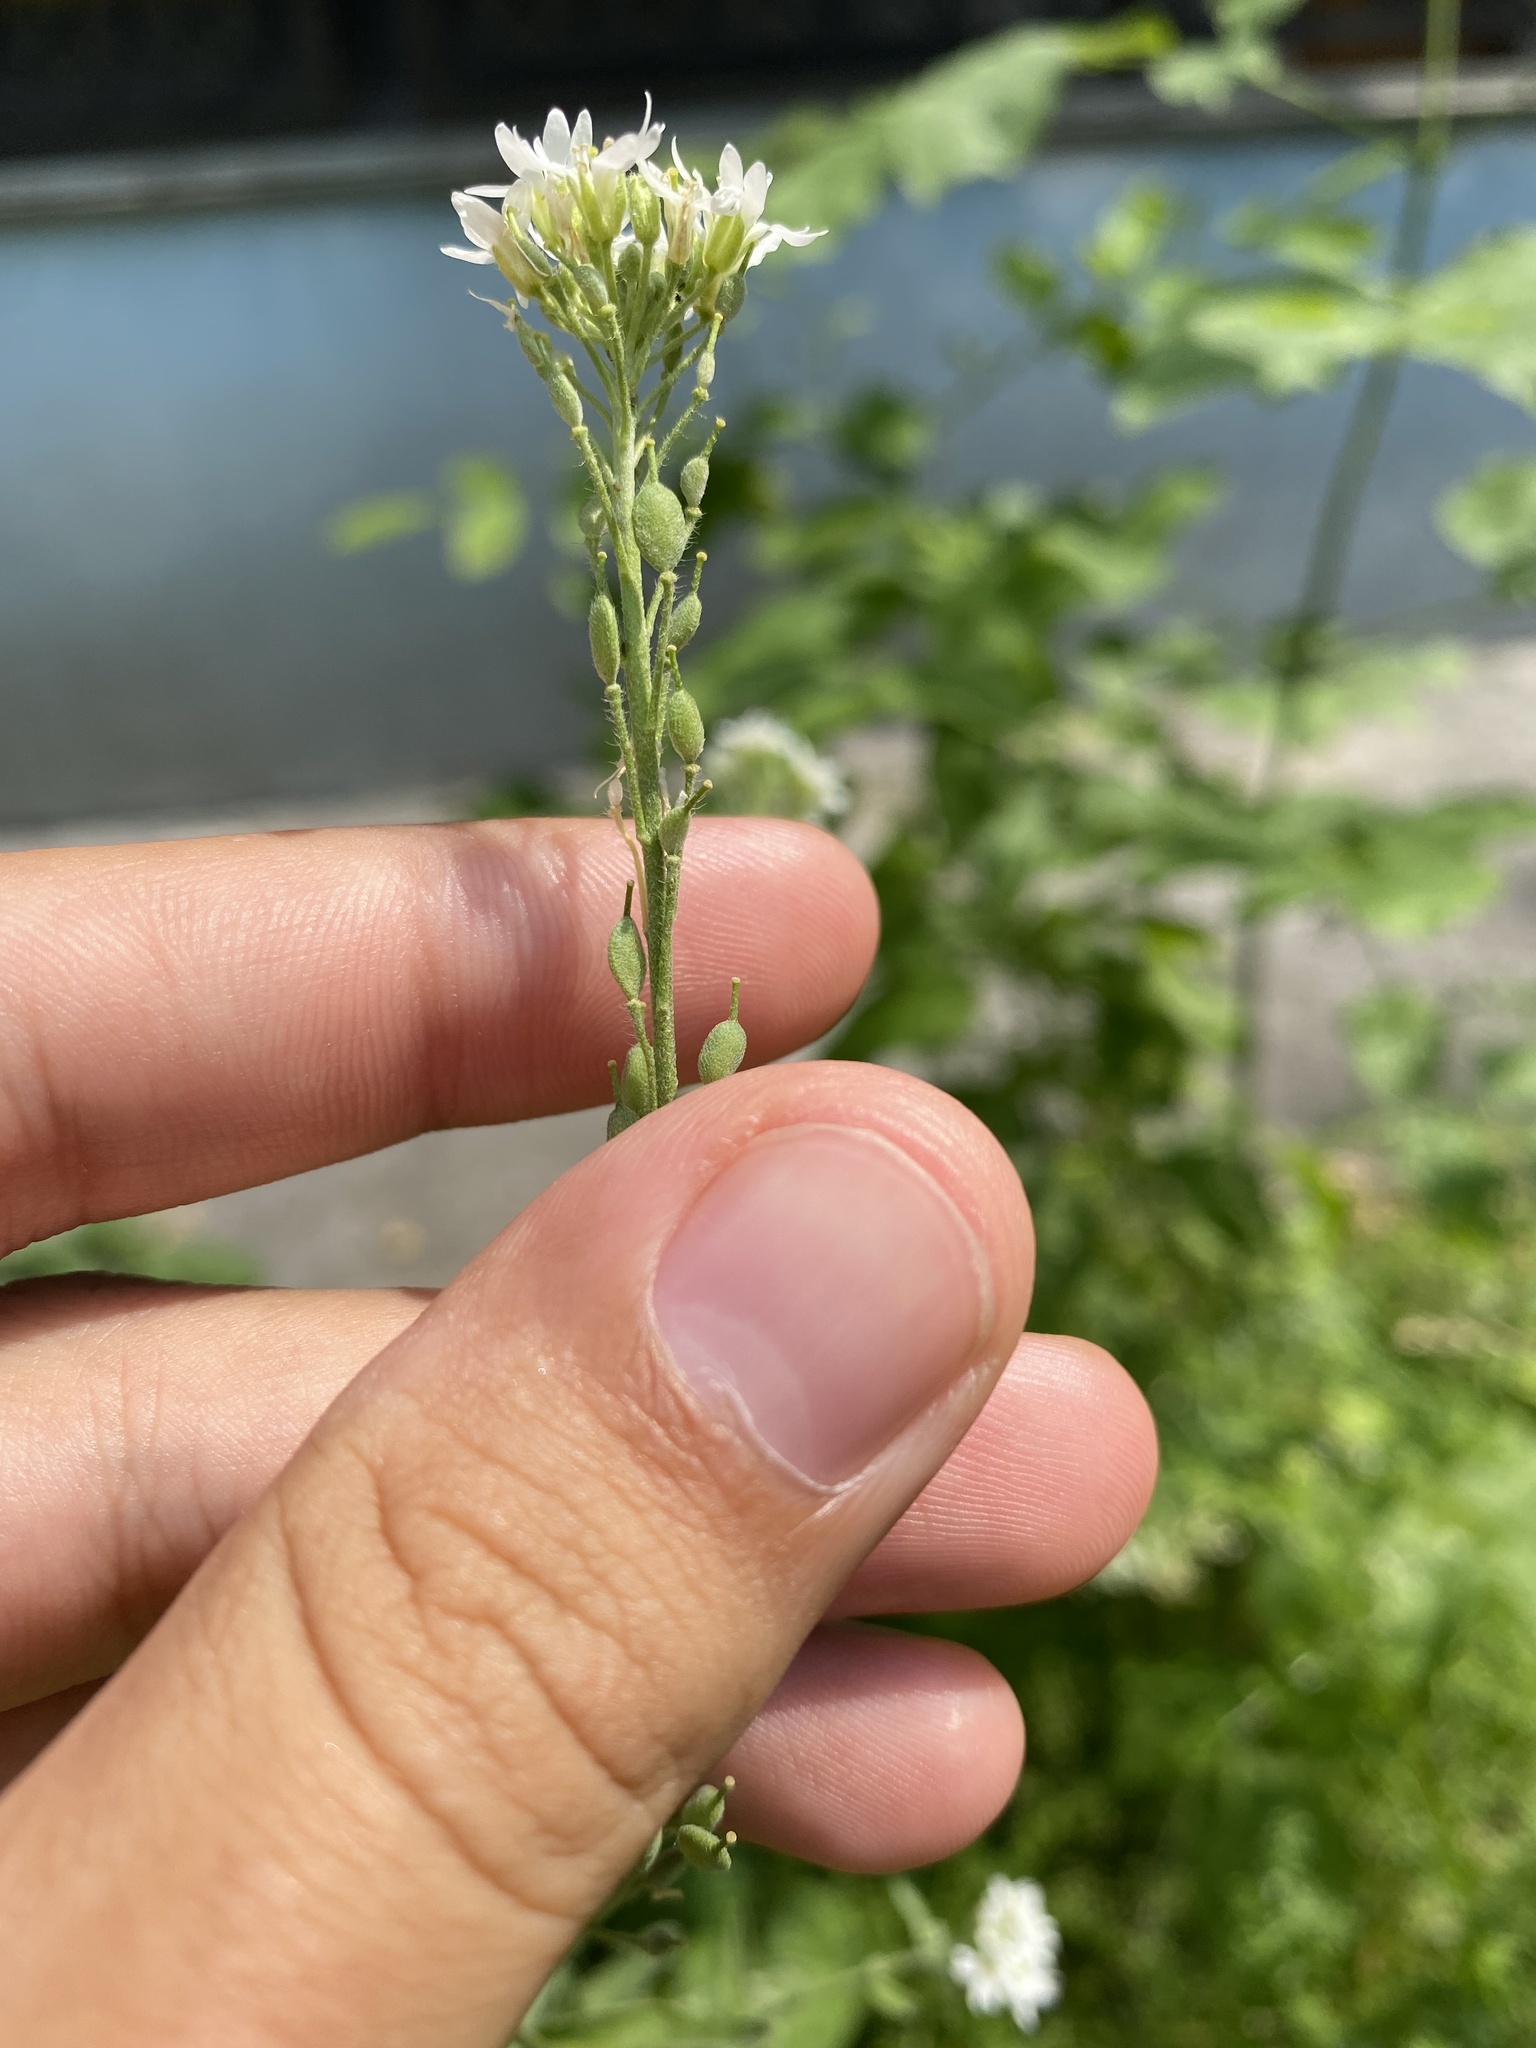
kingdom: Plantae
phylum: Tracheophyta
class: Magnoliopsida
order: Brassicales
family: Brassicaceae
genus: Berteroa
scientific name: Berteroa incana
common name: Hoary alison
